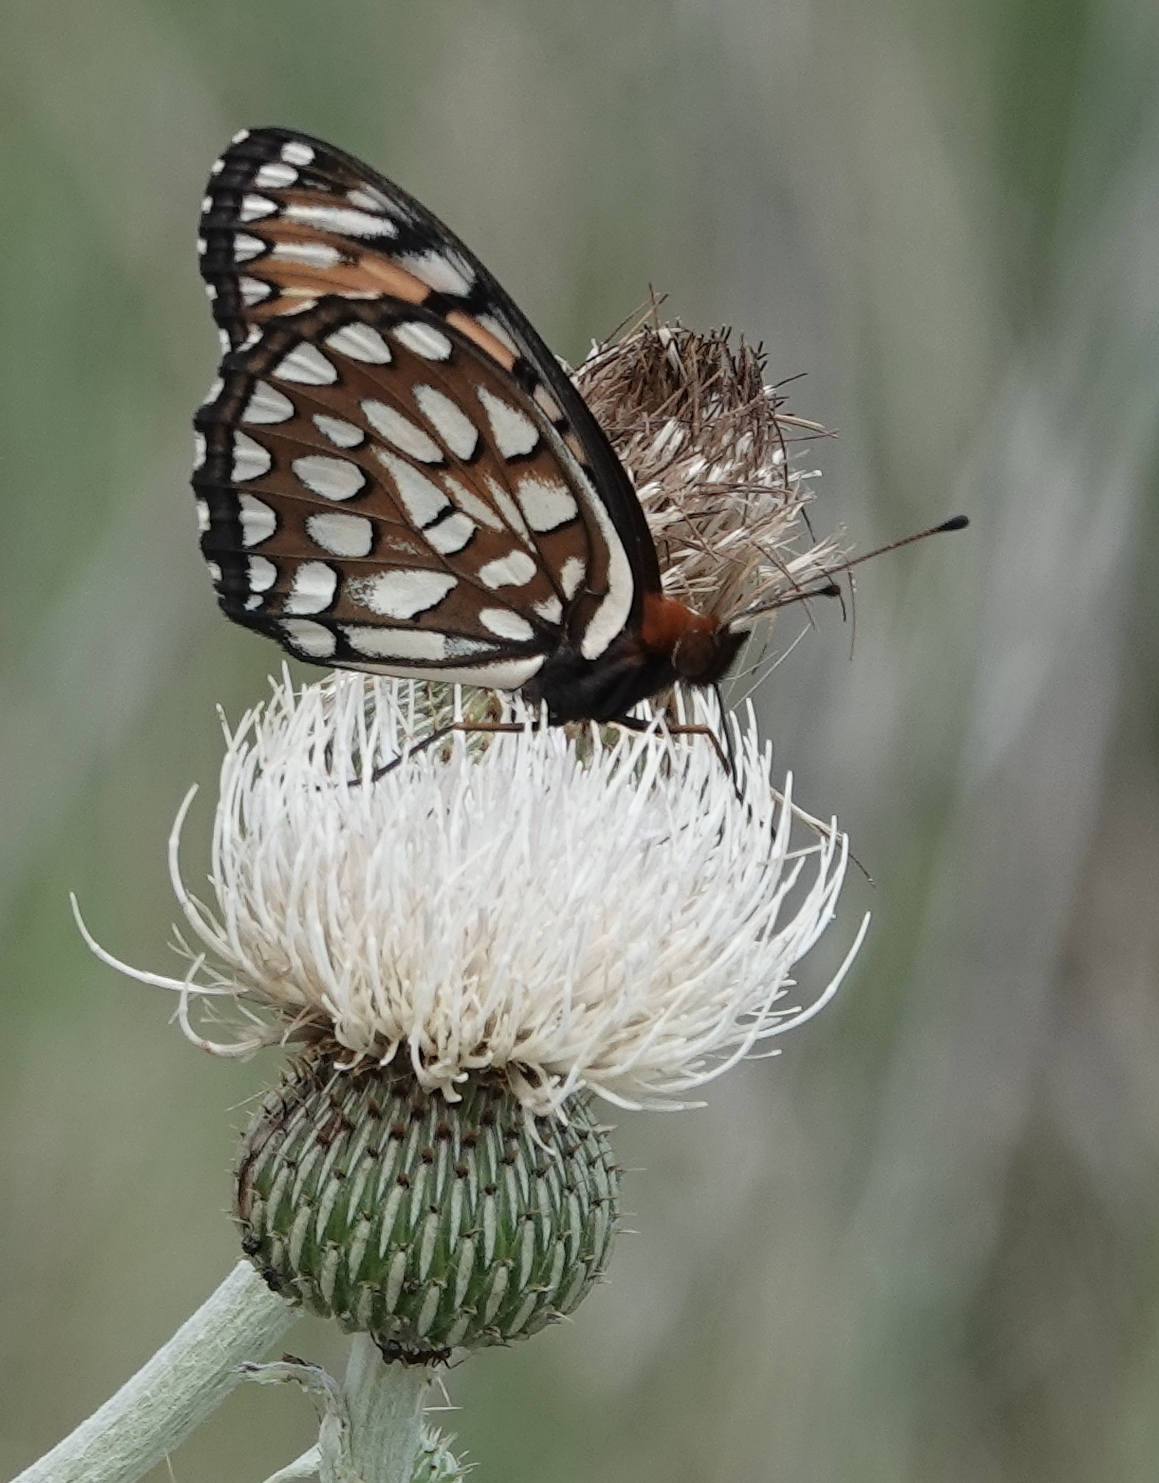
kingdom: Animalia
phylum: Arthropoda
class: Insecta
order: Lepidoptera
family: Nymphalidae
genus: Speyeria
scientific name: Speyeria idalia
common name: Regal fritillary
